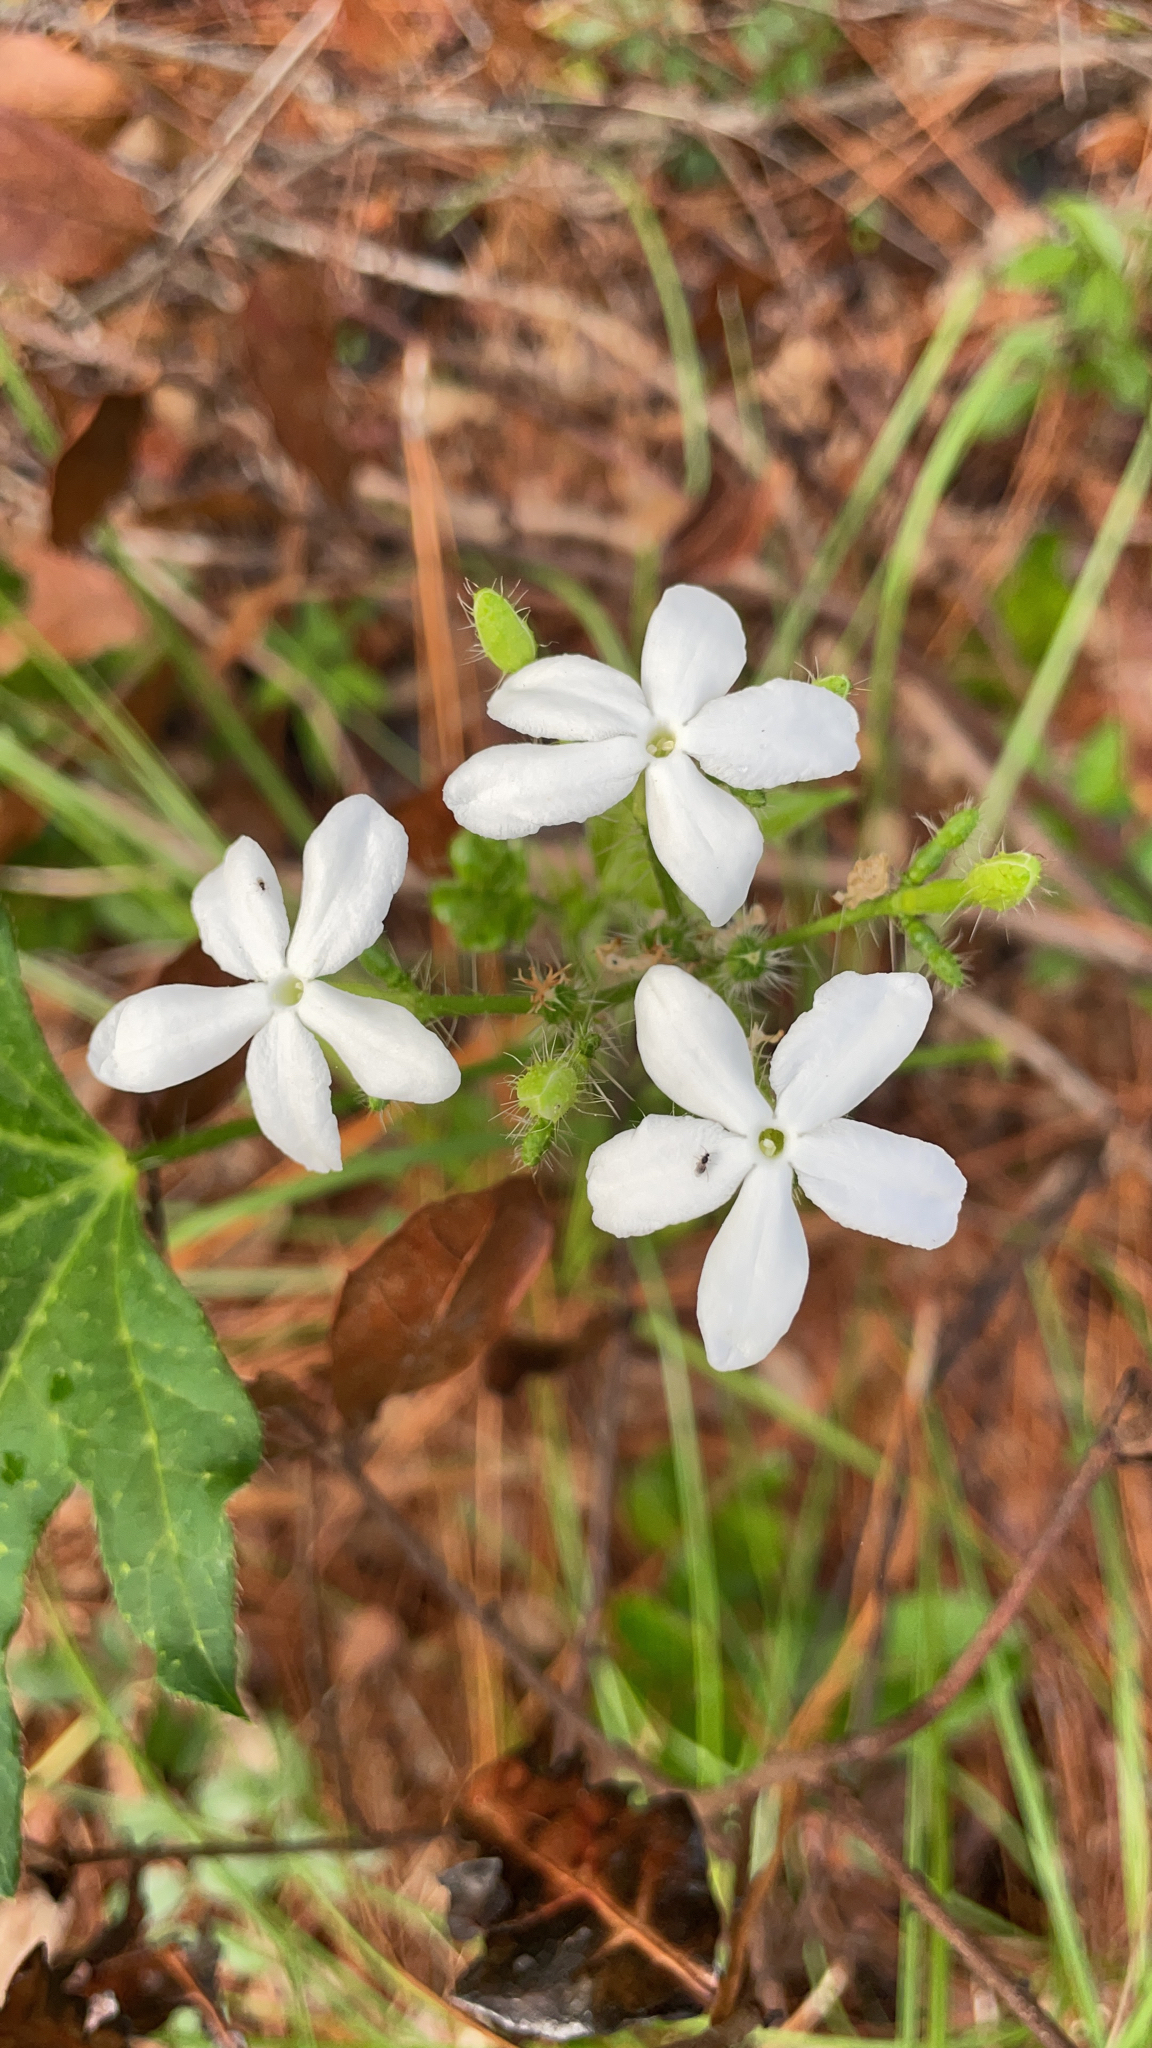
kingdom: Plantae
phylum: Tracheophyta
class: Magnoliopsida
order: Malpighiales
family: Euphorbiaceae
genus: Cnidoscolus
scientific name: Cnidoscolus stimulosus
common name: Bull-nettle
